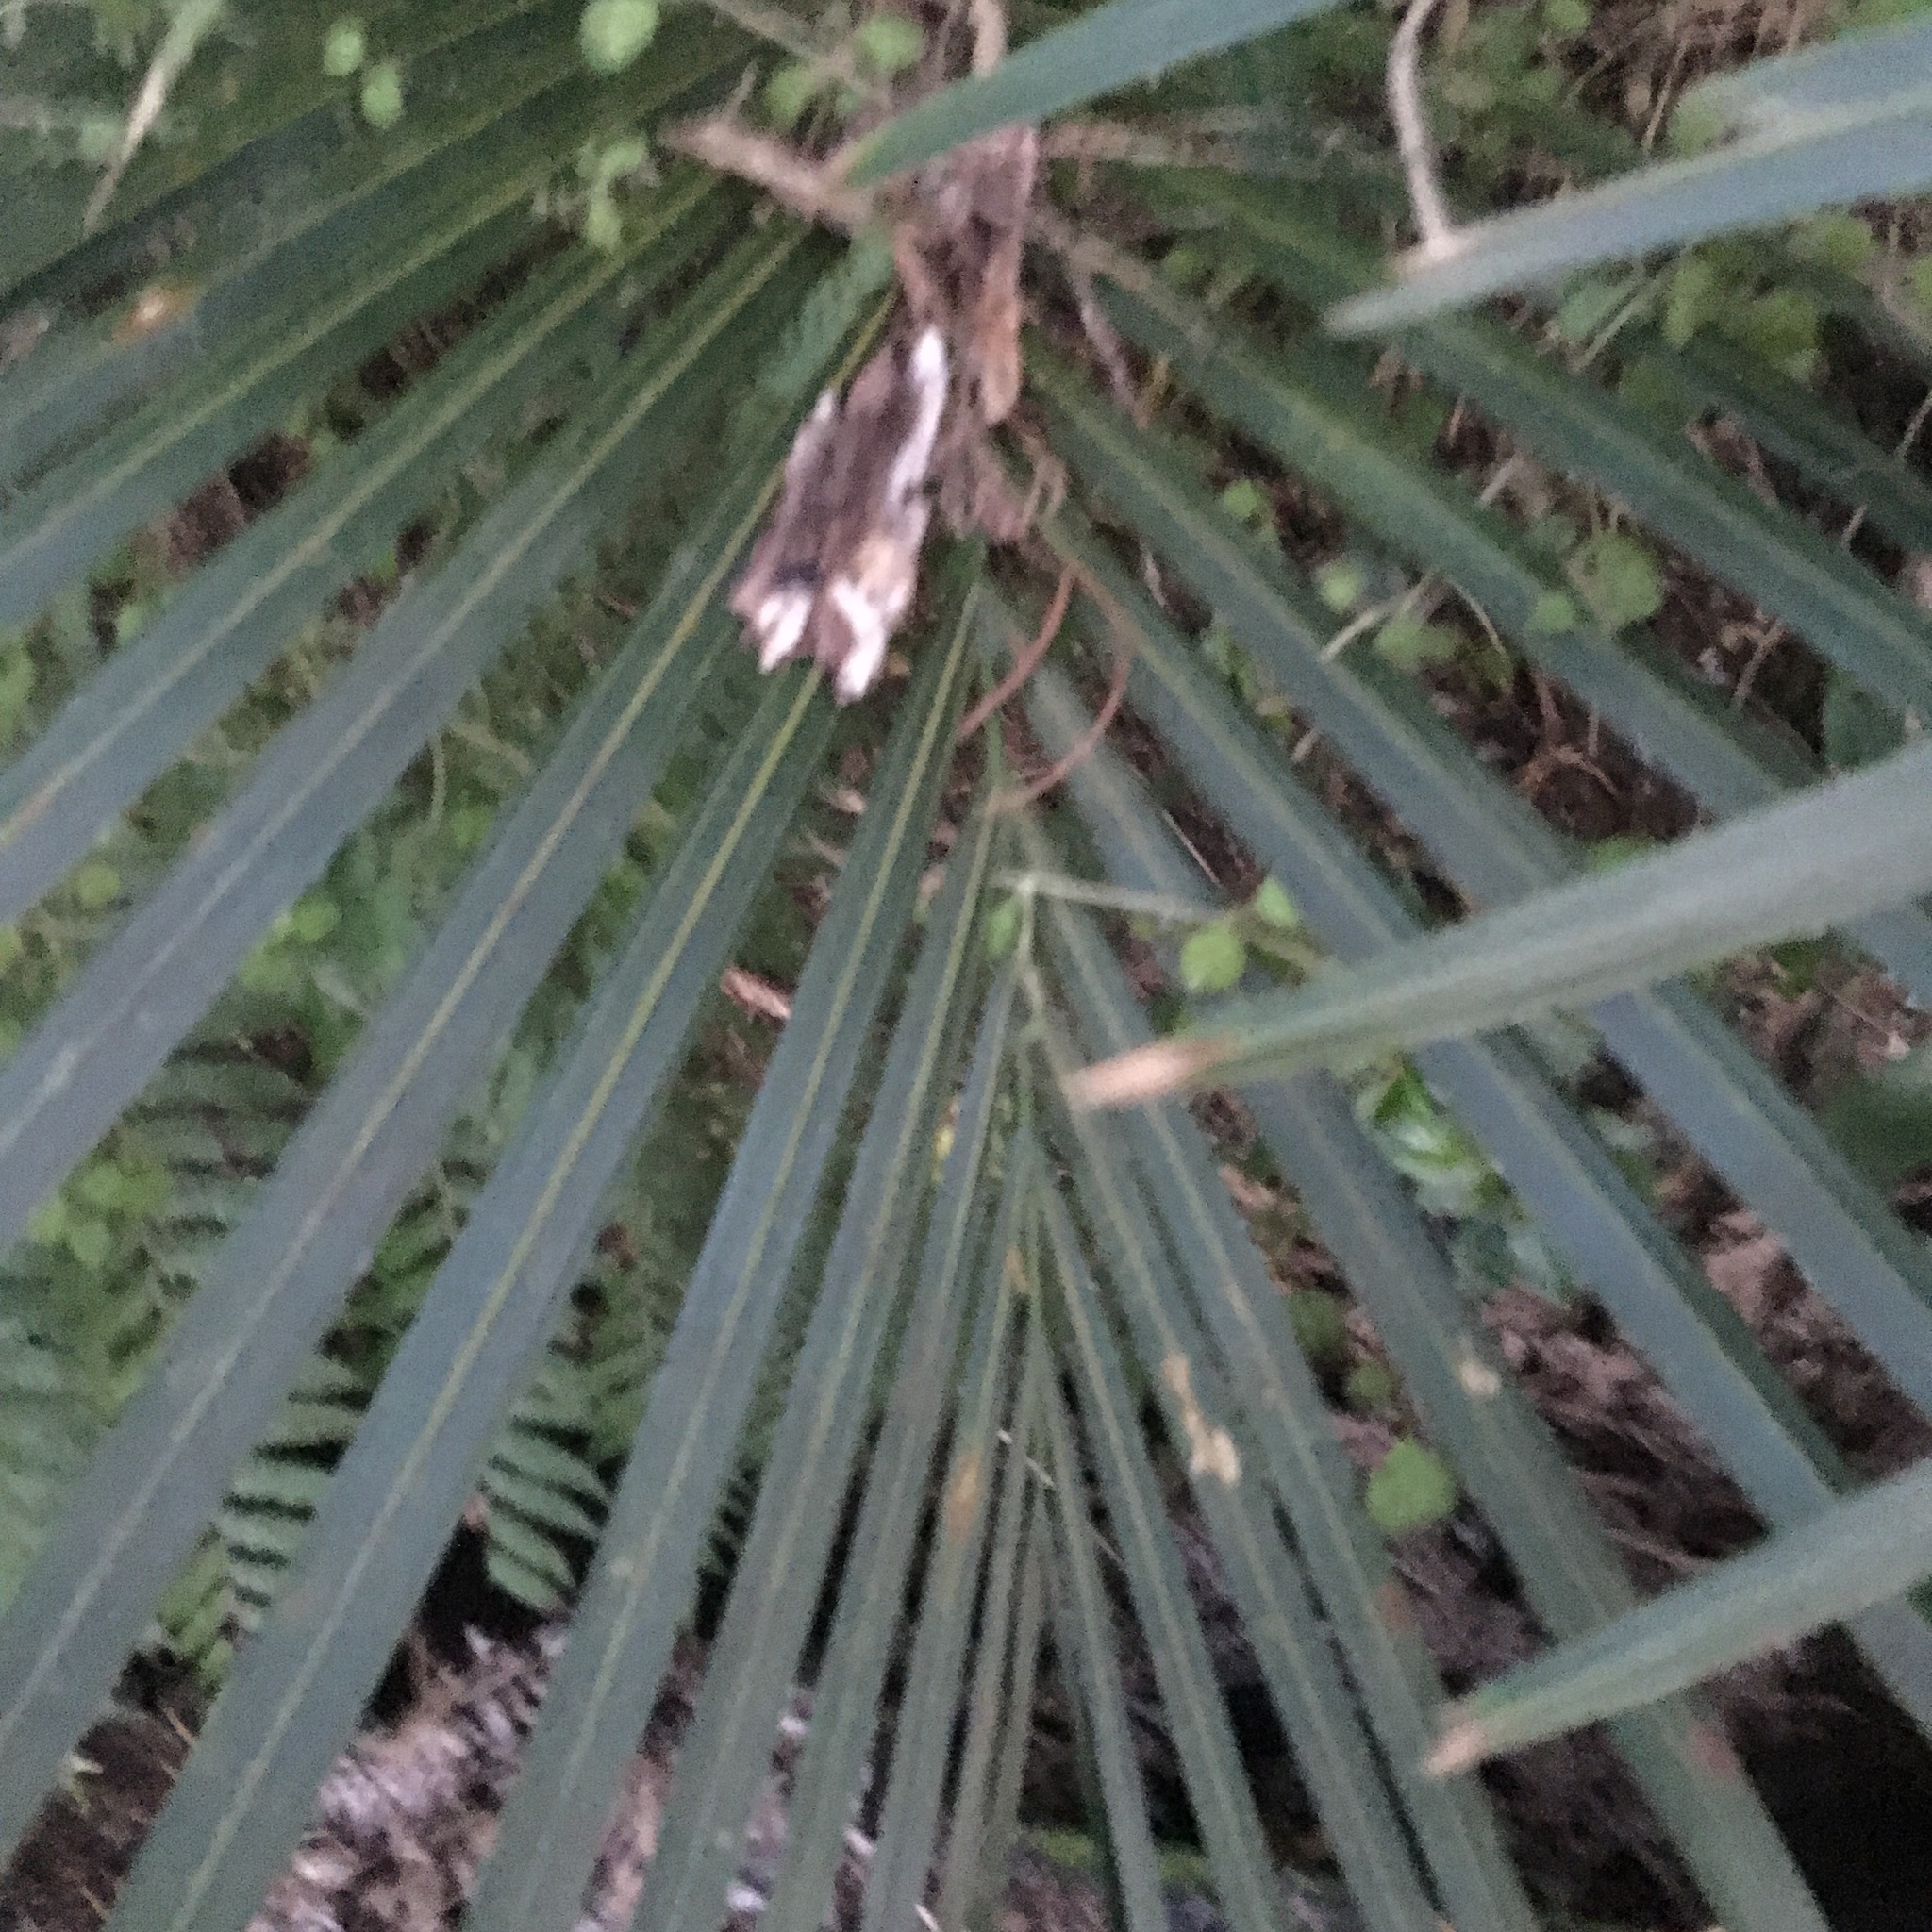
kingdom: Plantae
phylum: Tracheophyta
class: Liliopsida
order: Arecales
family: Arecaceae
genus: Rhopalostylis
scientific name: Rhopalostylis sapida
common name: Feather-duster palm
